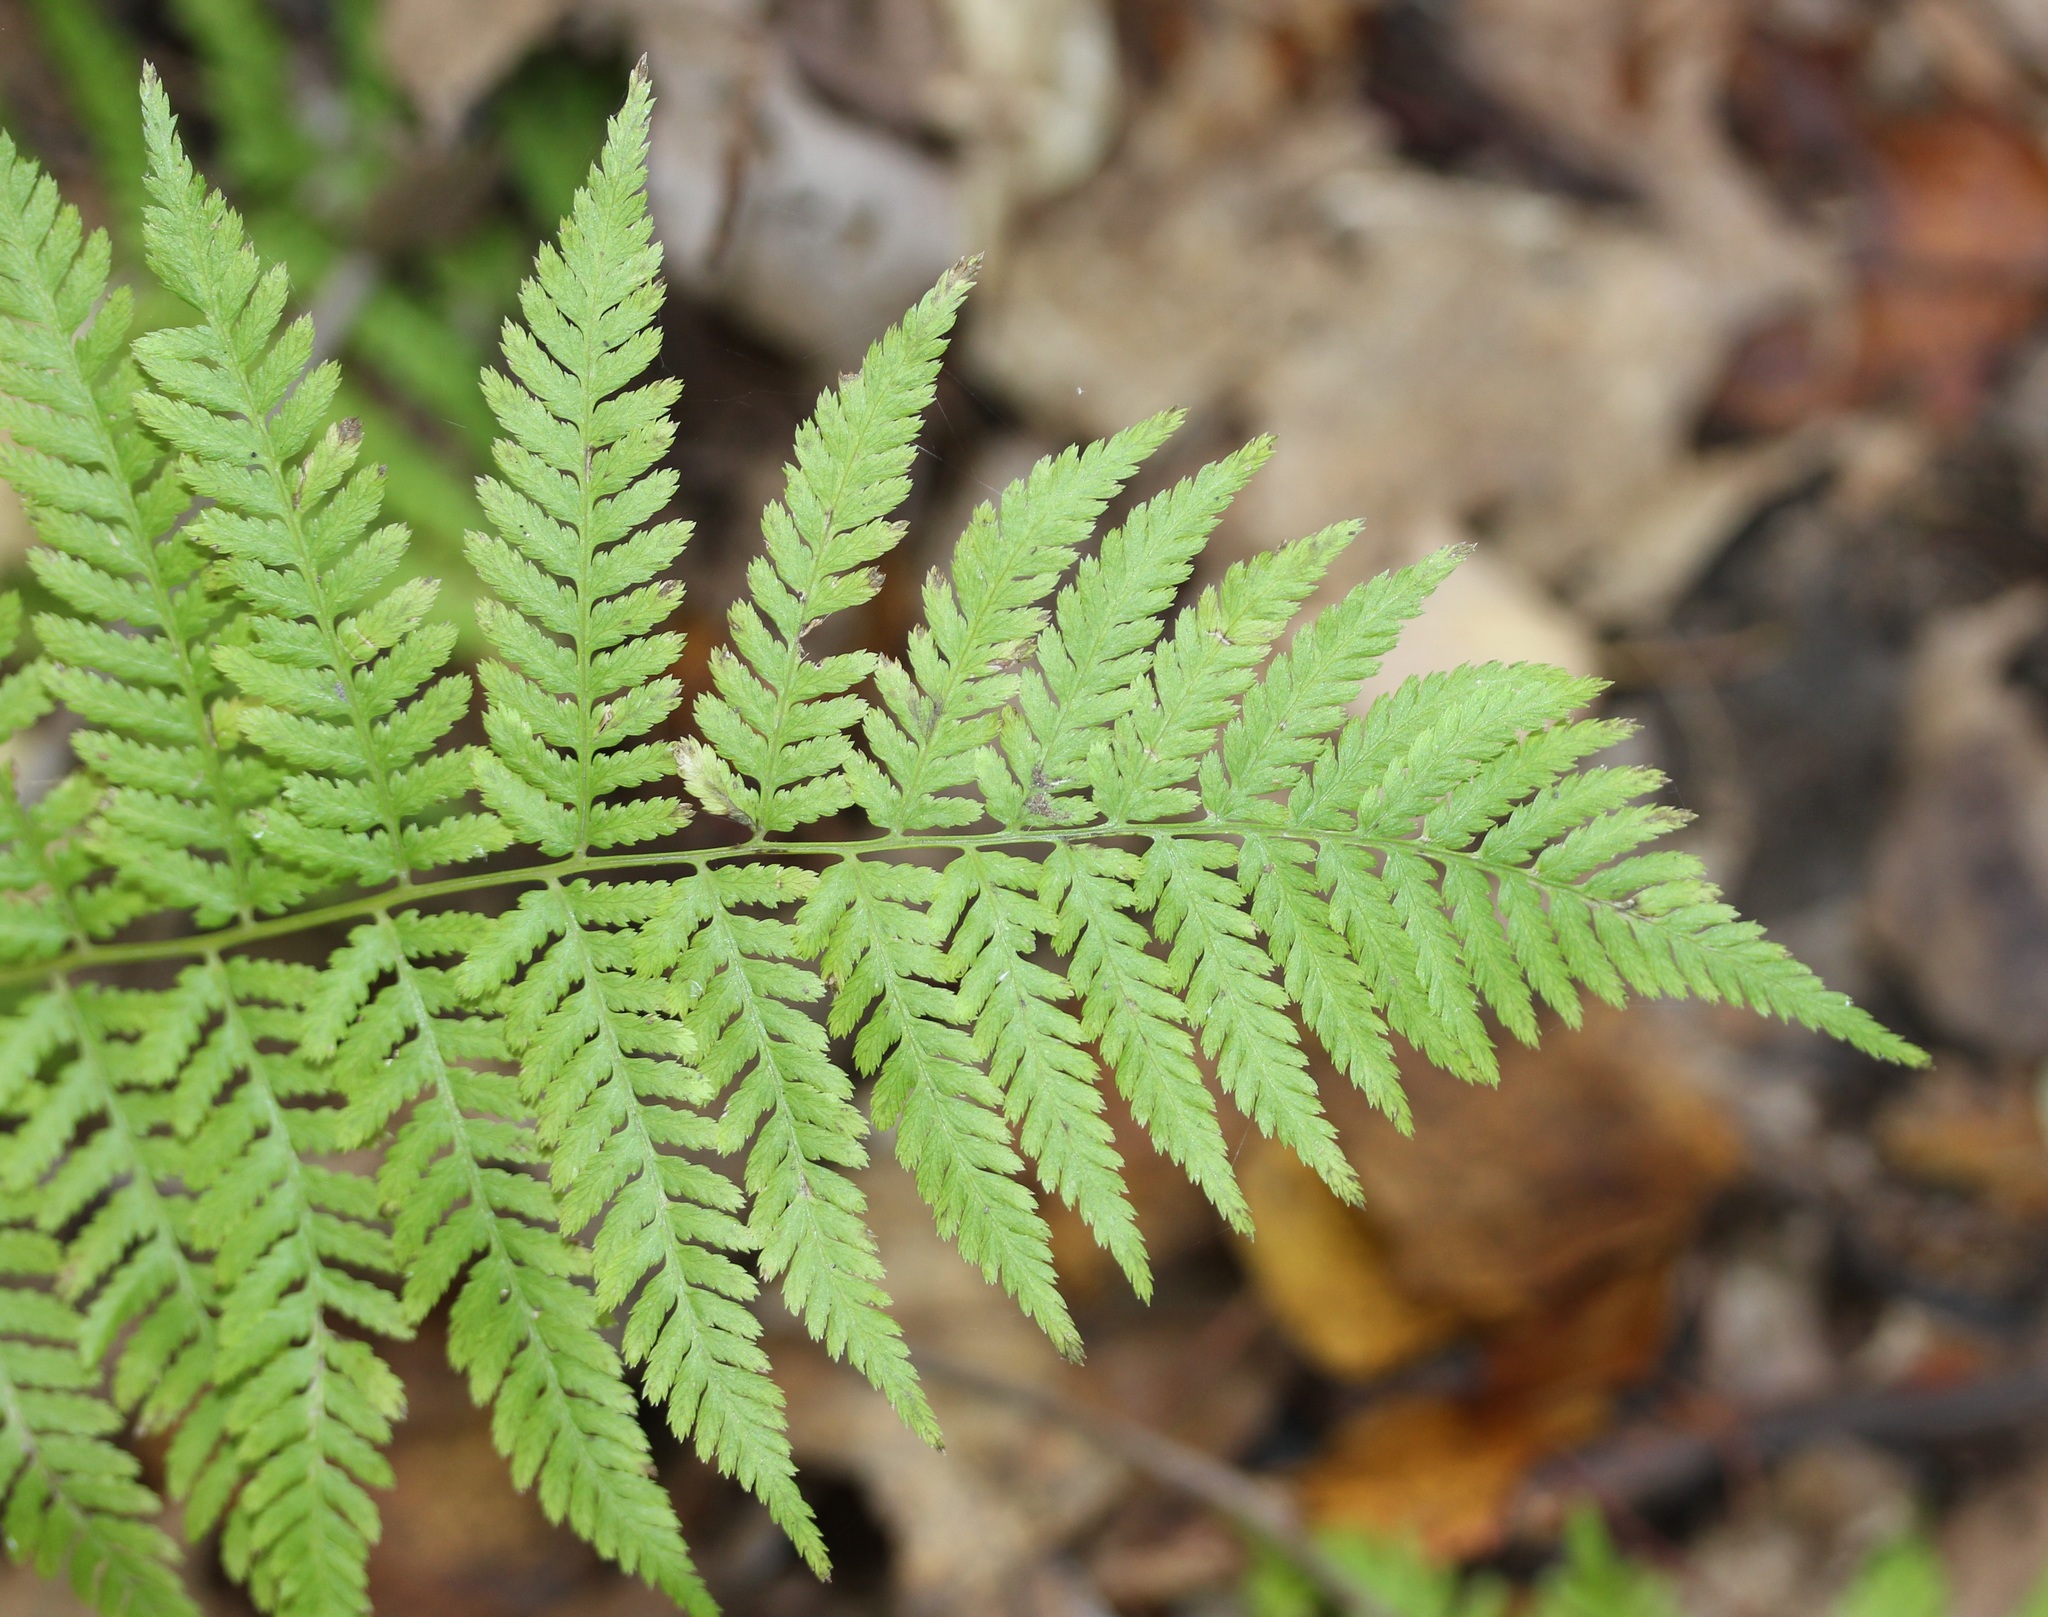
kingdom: Plantae
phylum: Tracheophyta
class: Polypodiopsida
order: Polypodiales
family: Athyriaceae
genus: Athyrium
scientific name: Athyrium angustum
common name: Northern lady fern
